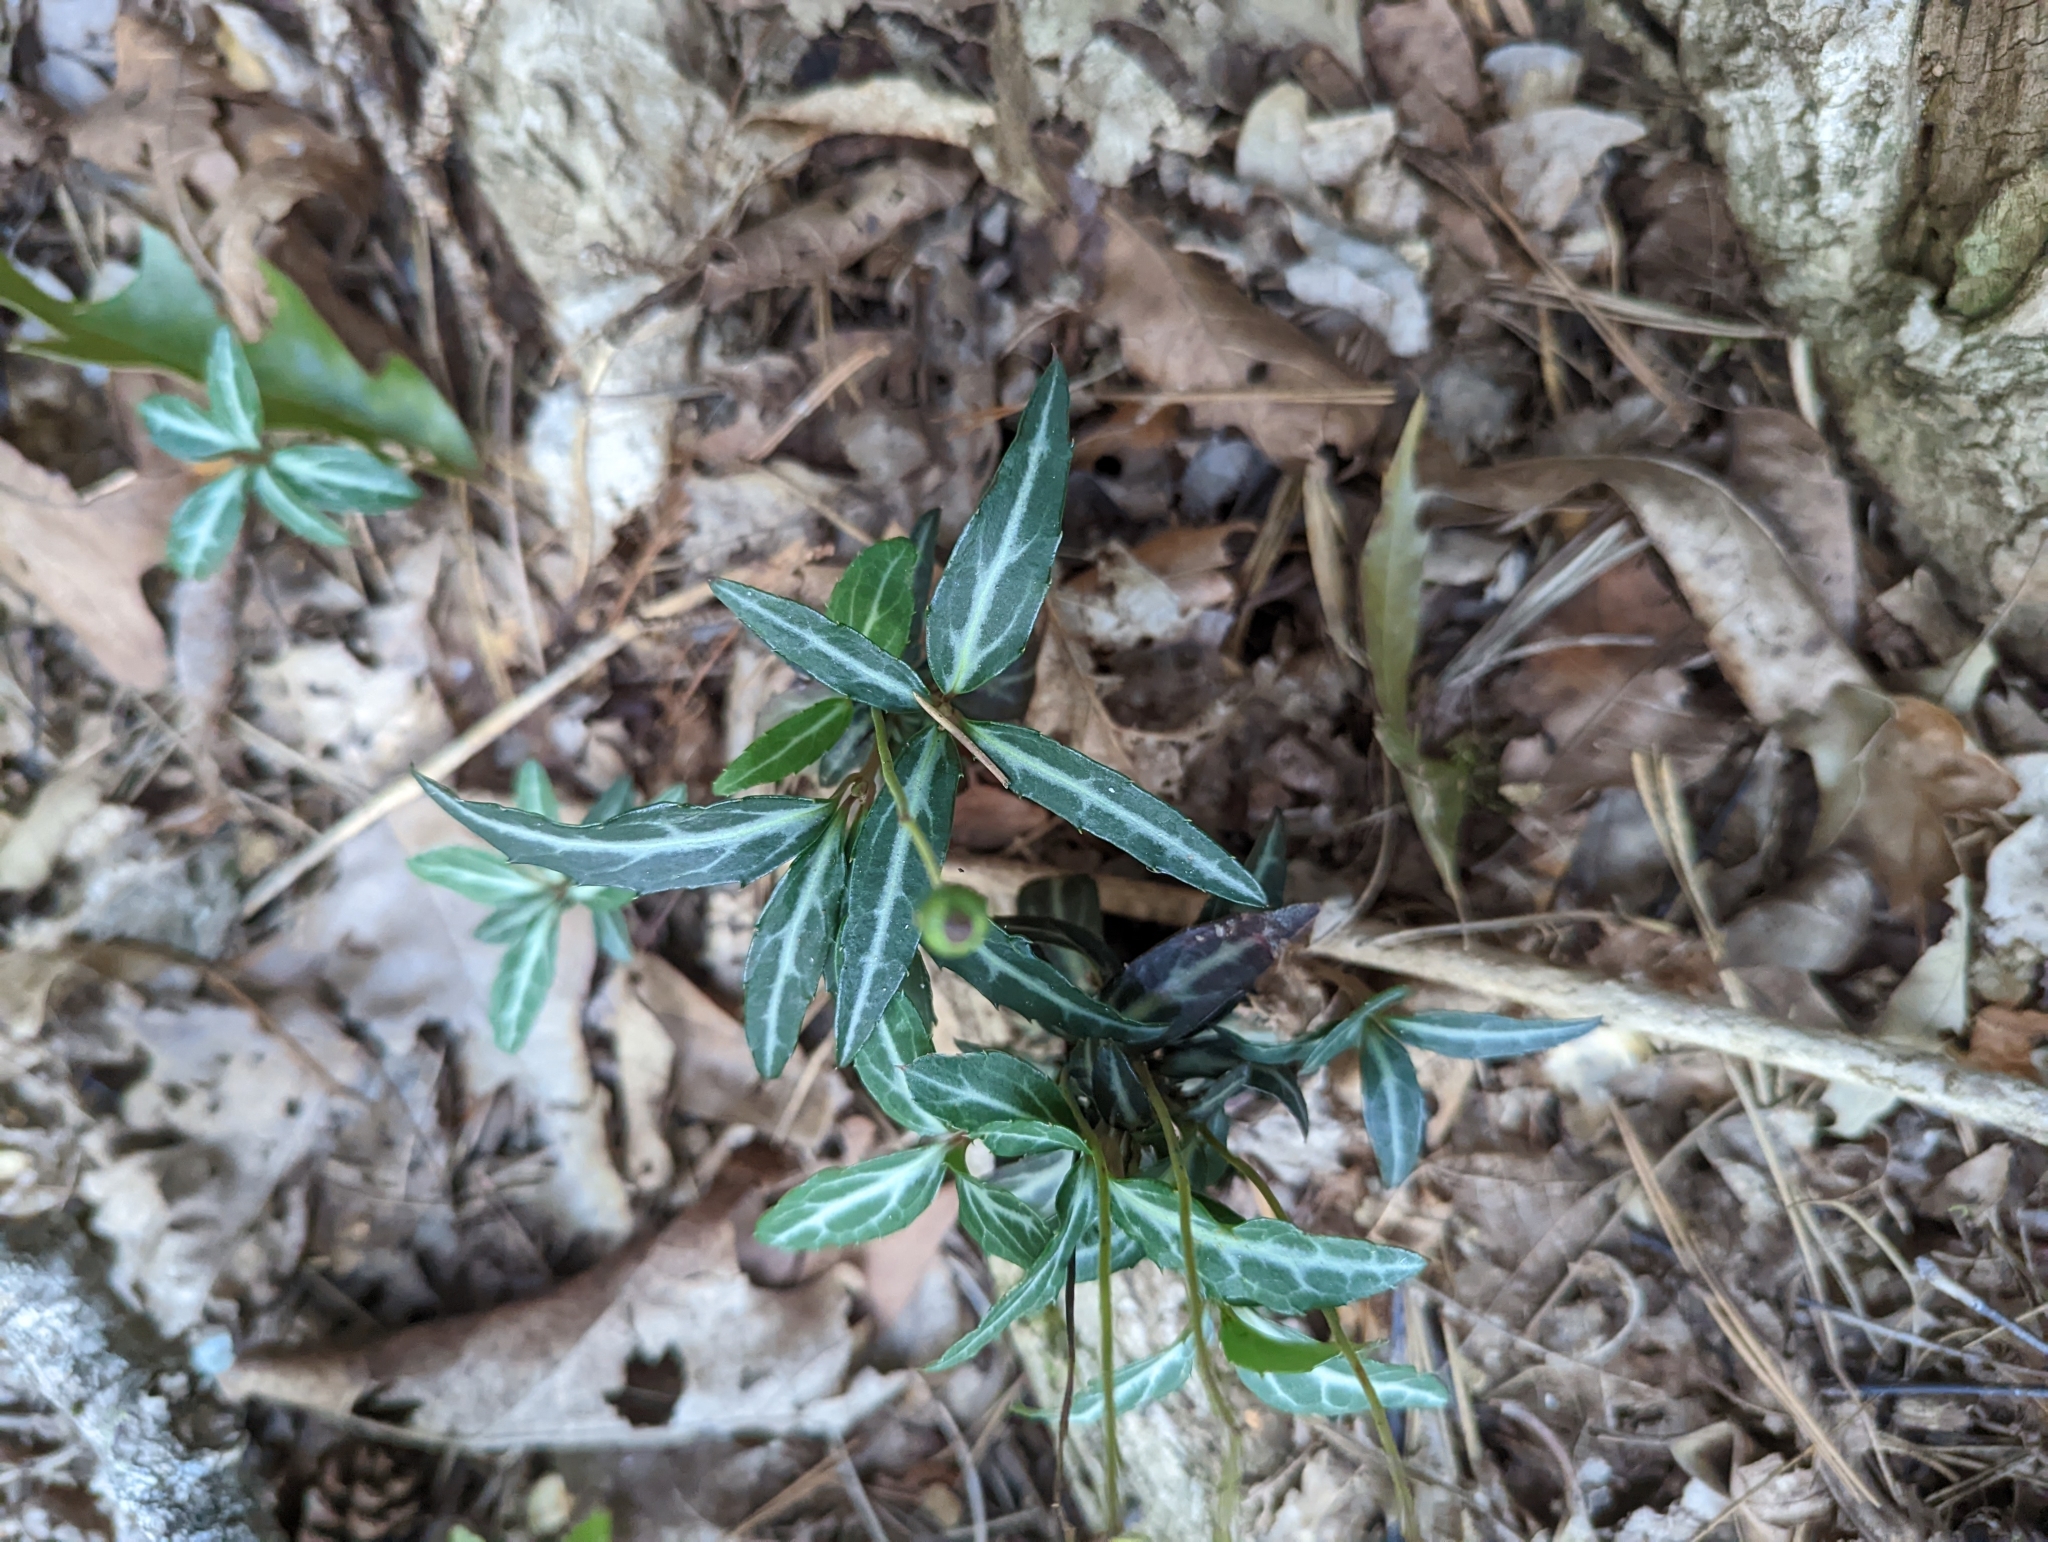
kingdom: Plantae
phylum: Tracheophyta
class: Magnoliopsida
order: Ericales
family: Ericaceae
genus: Chimaphila
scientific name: Chimaphila maculata
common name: Spotted pipsissewa
